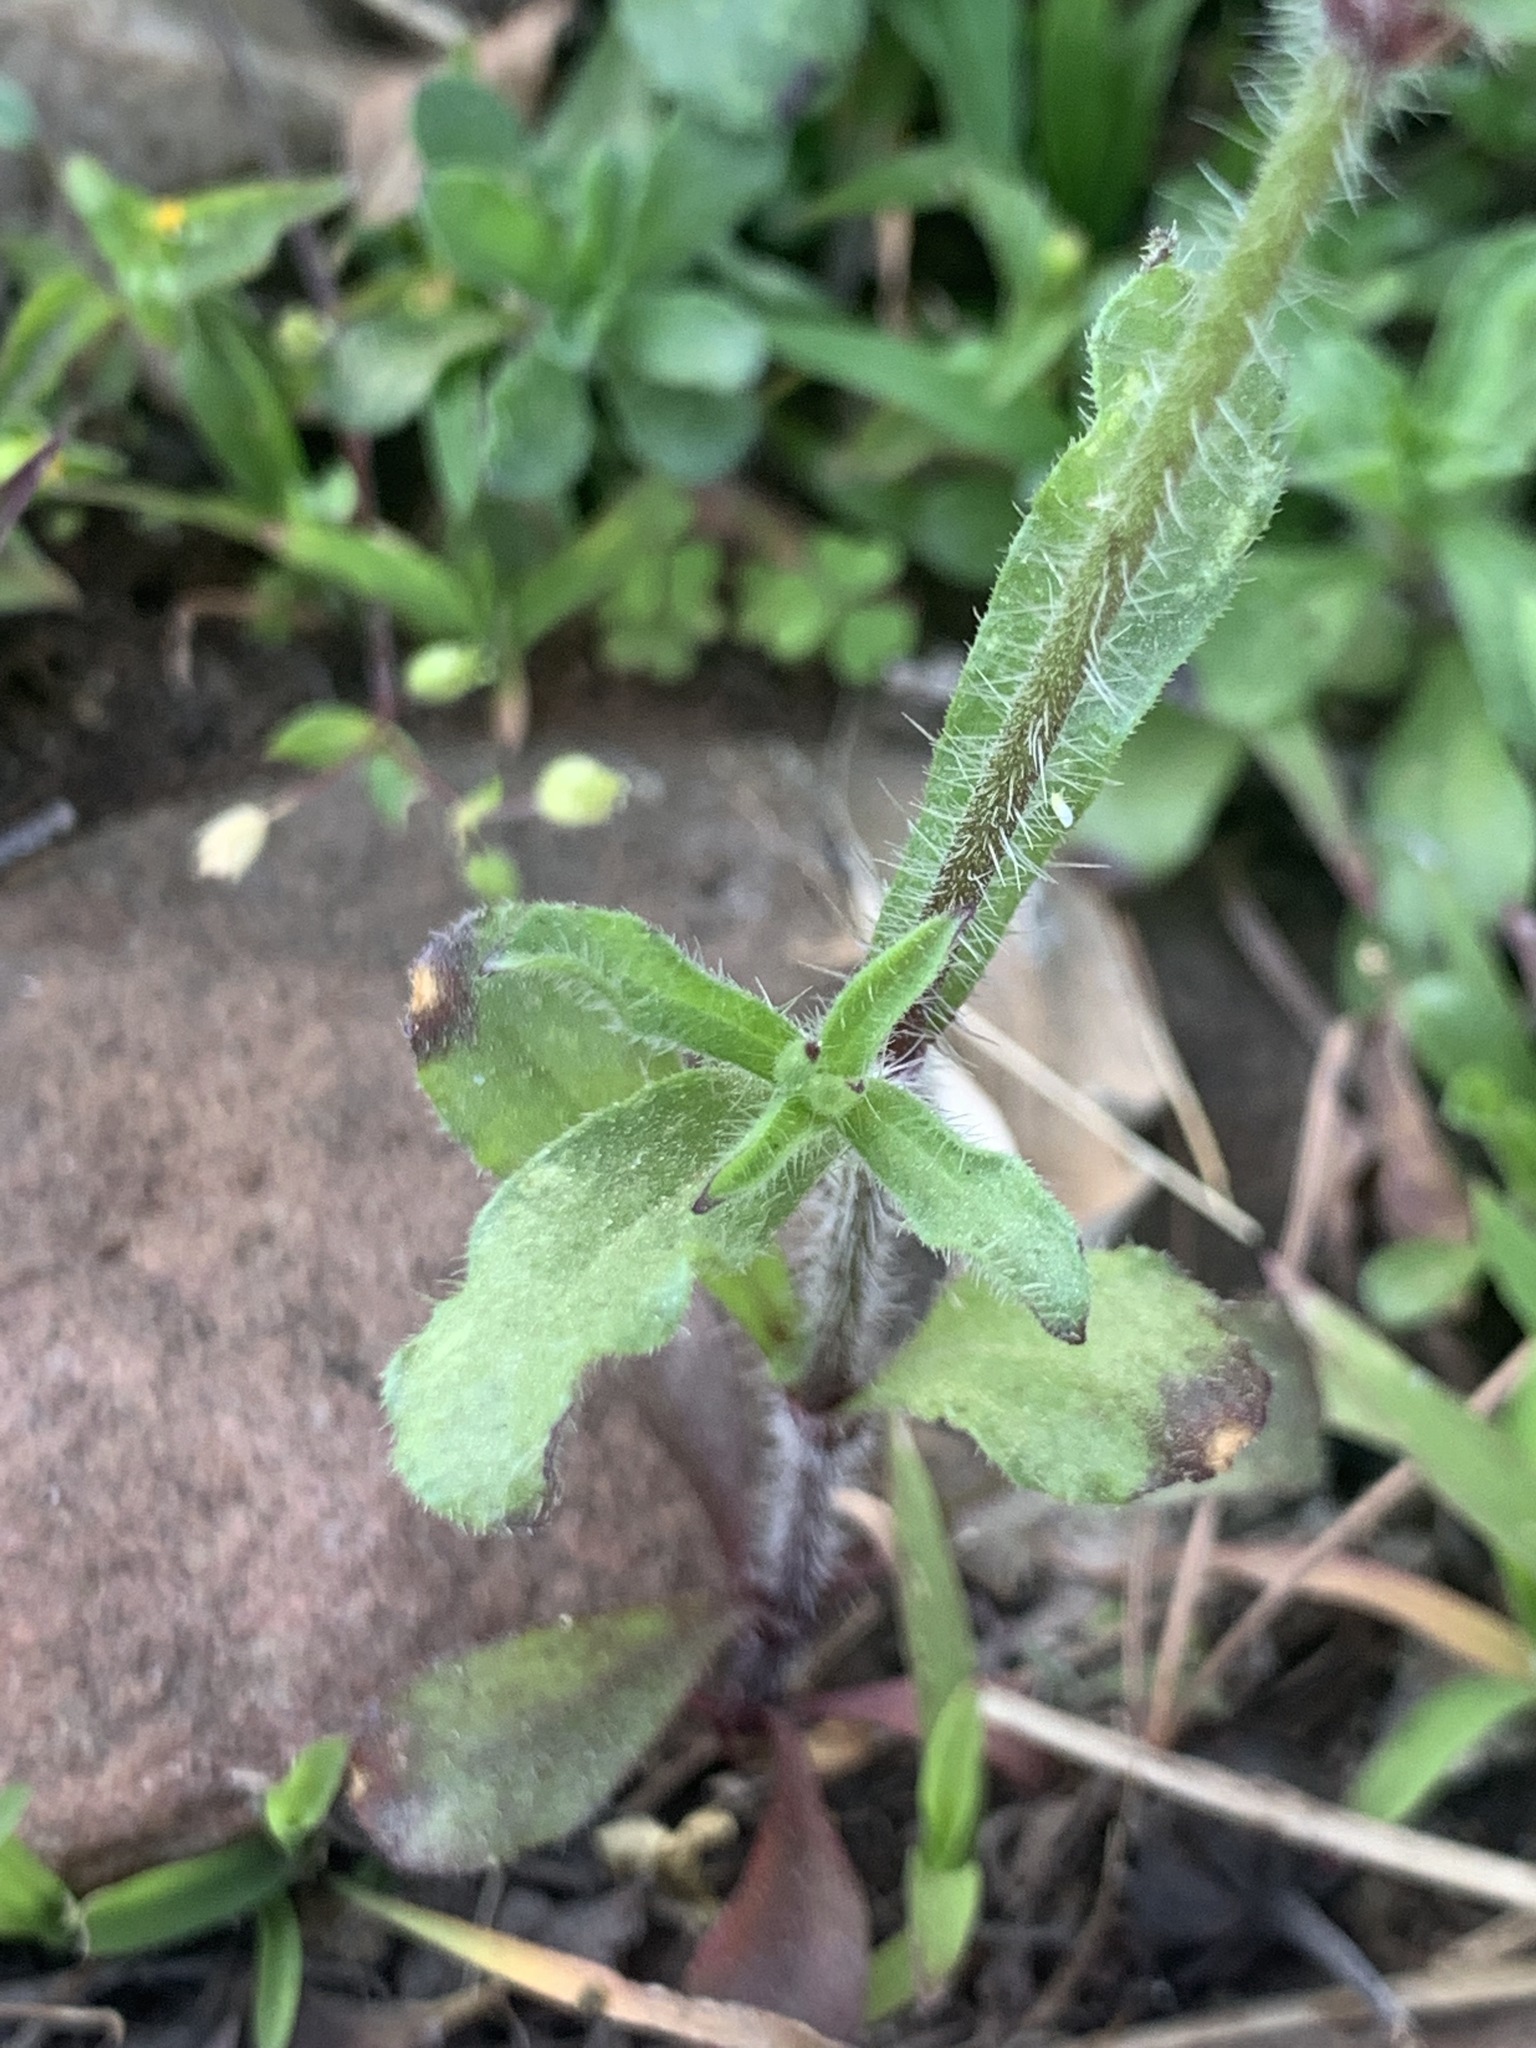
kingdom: Plantae
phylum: Tracheophyta
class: Magnoliopsida
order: Caryophyllales
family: Caryophyllaceae
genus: Silene
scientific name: Silene gallica
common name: Small-flowered catchfly
